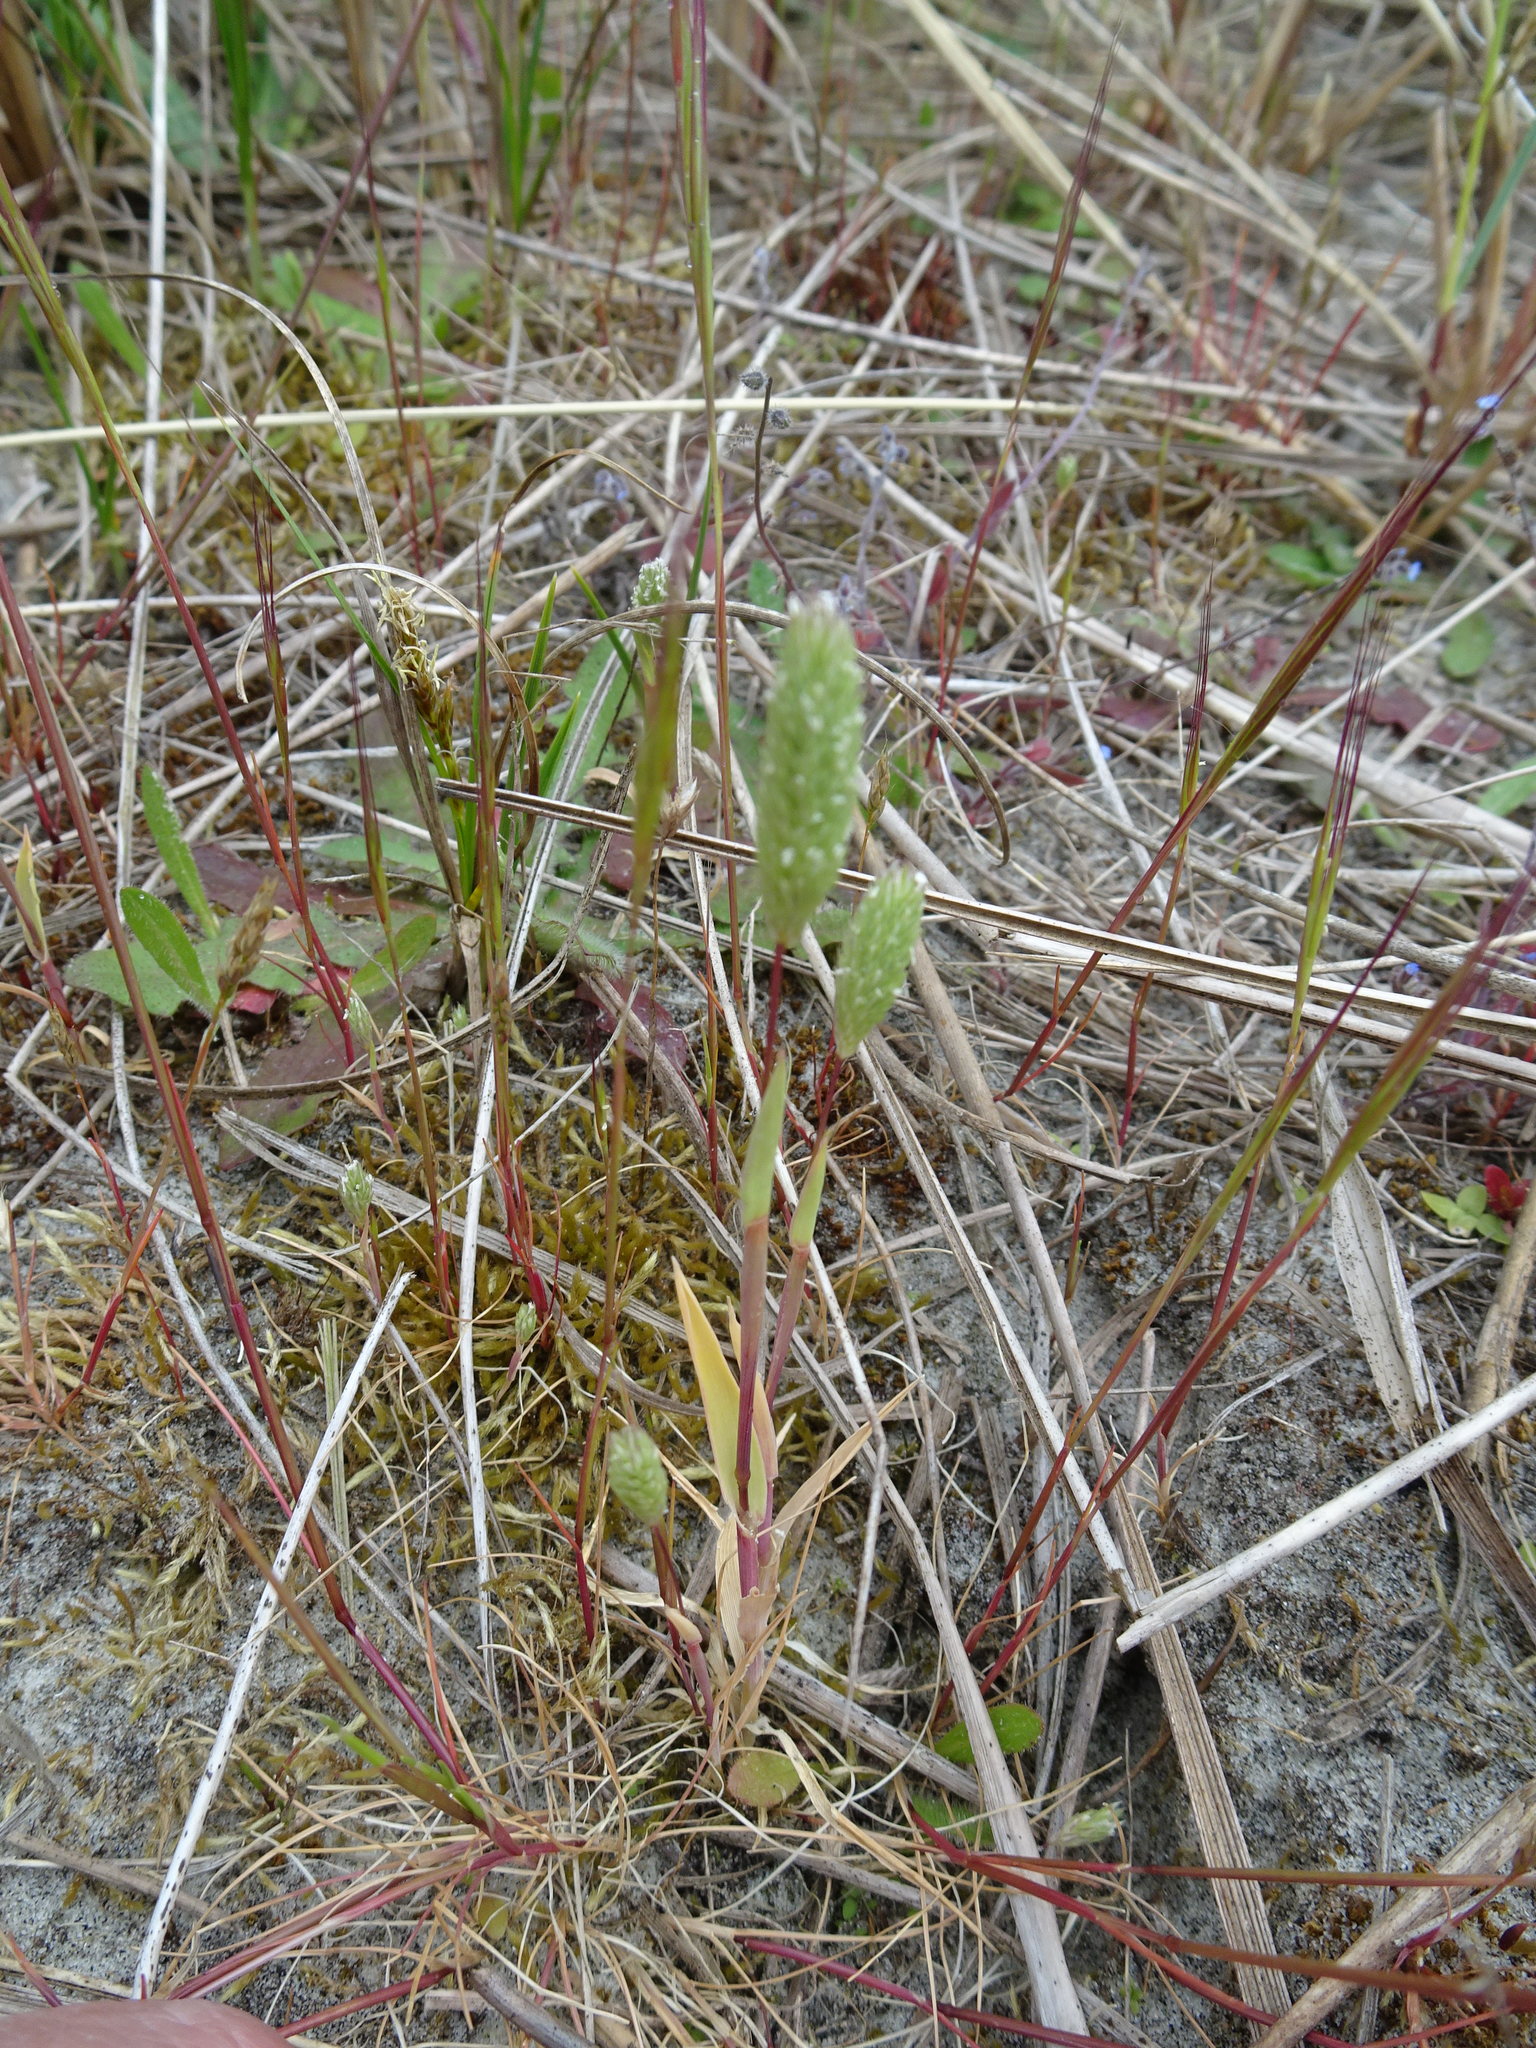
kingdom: Plantae
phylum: Tracheophyta
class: Liliopsida
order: Poales
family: Poaceae
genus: Phleum
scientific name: Phleum arenarium
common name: Sand cat's-tail
